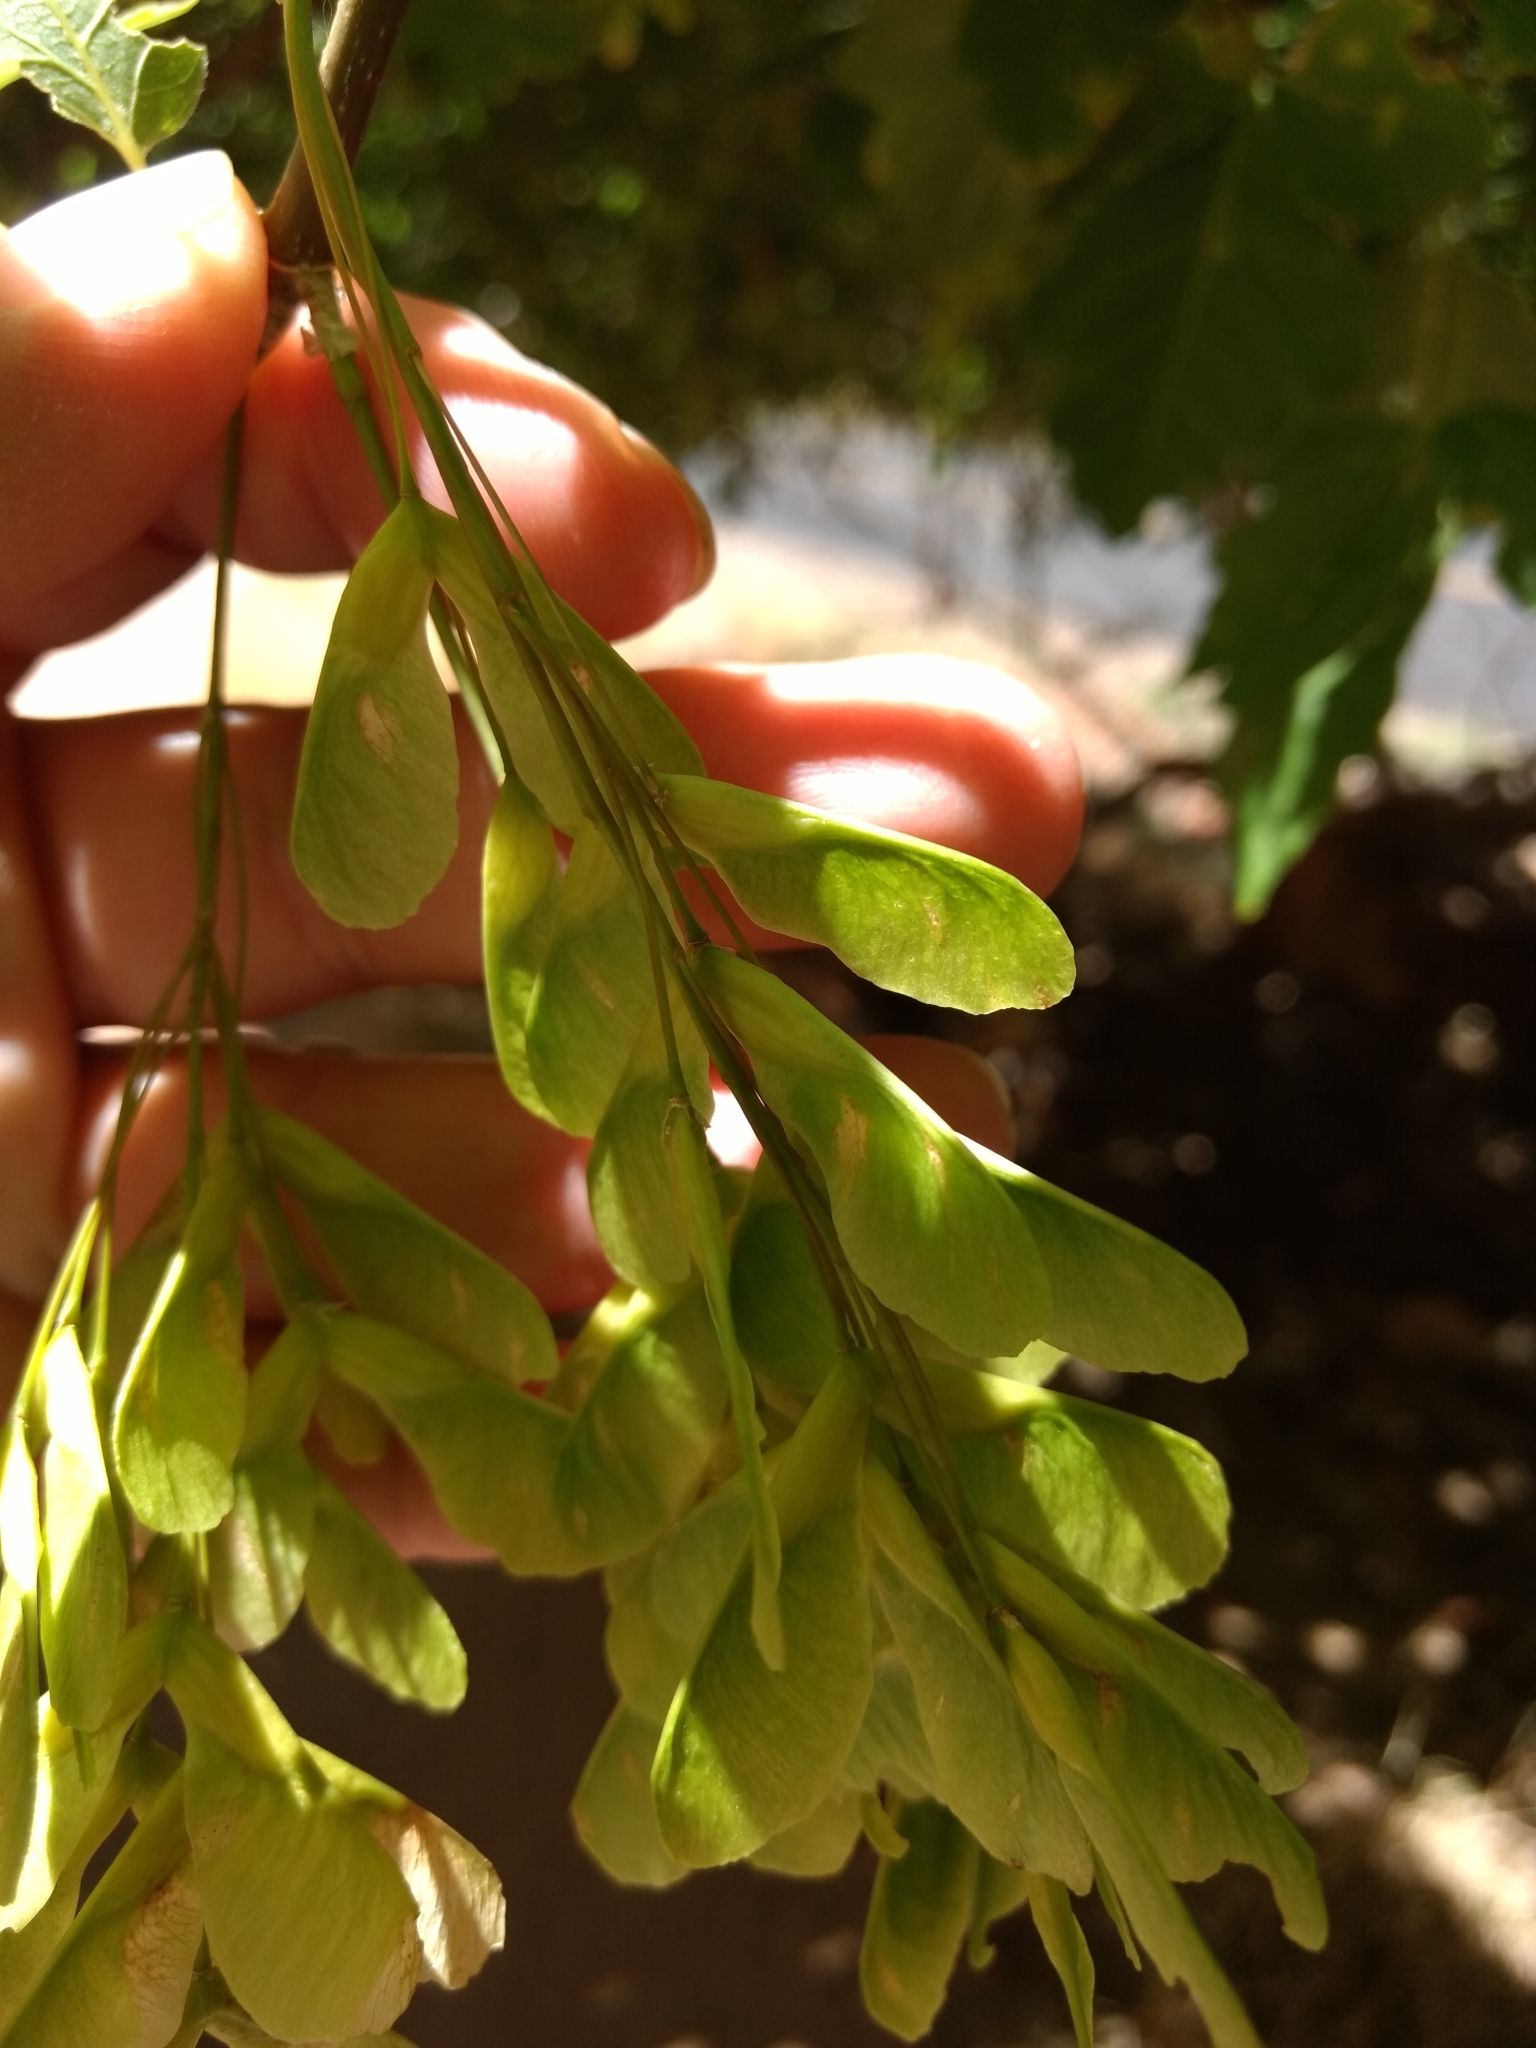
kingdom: Plantae
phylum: Tracheophyta
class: Magnoliopsida
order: Sapindales
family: Sapindaceae
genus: Acer
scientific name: Acer negundo
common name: Ashleaf maple
